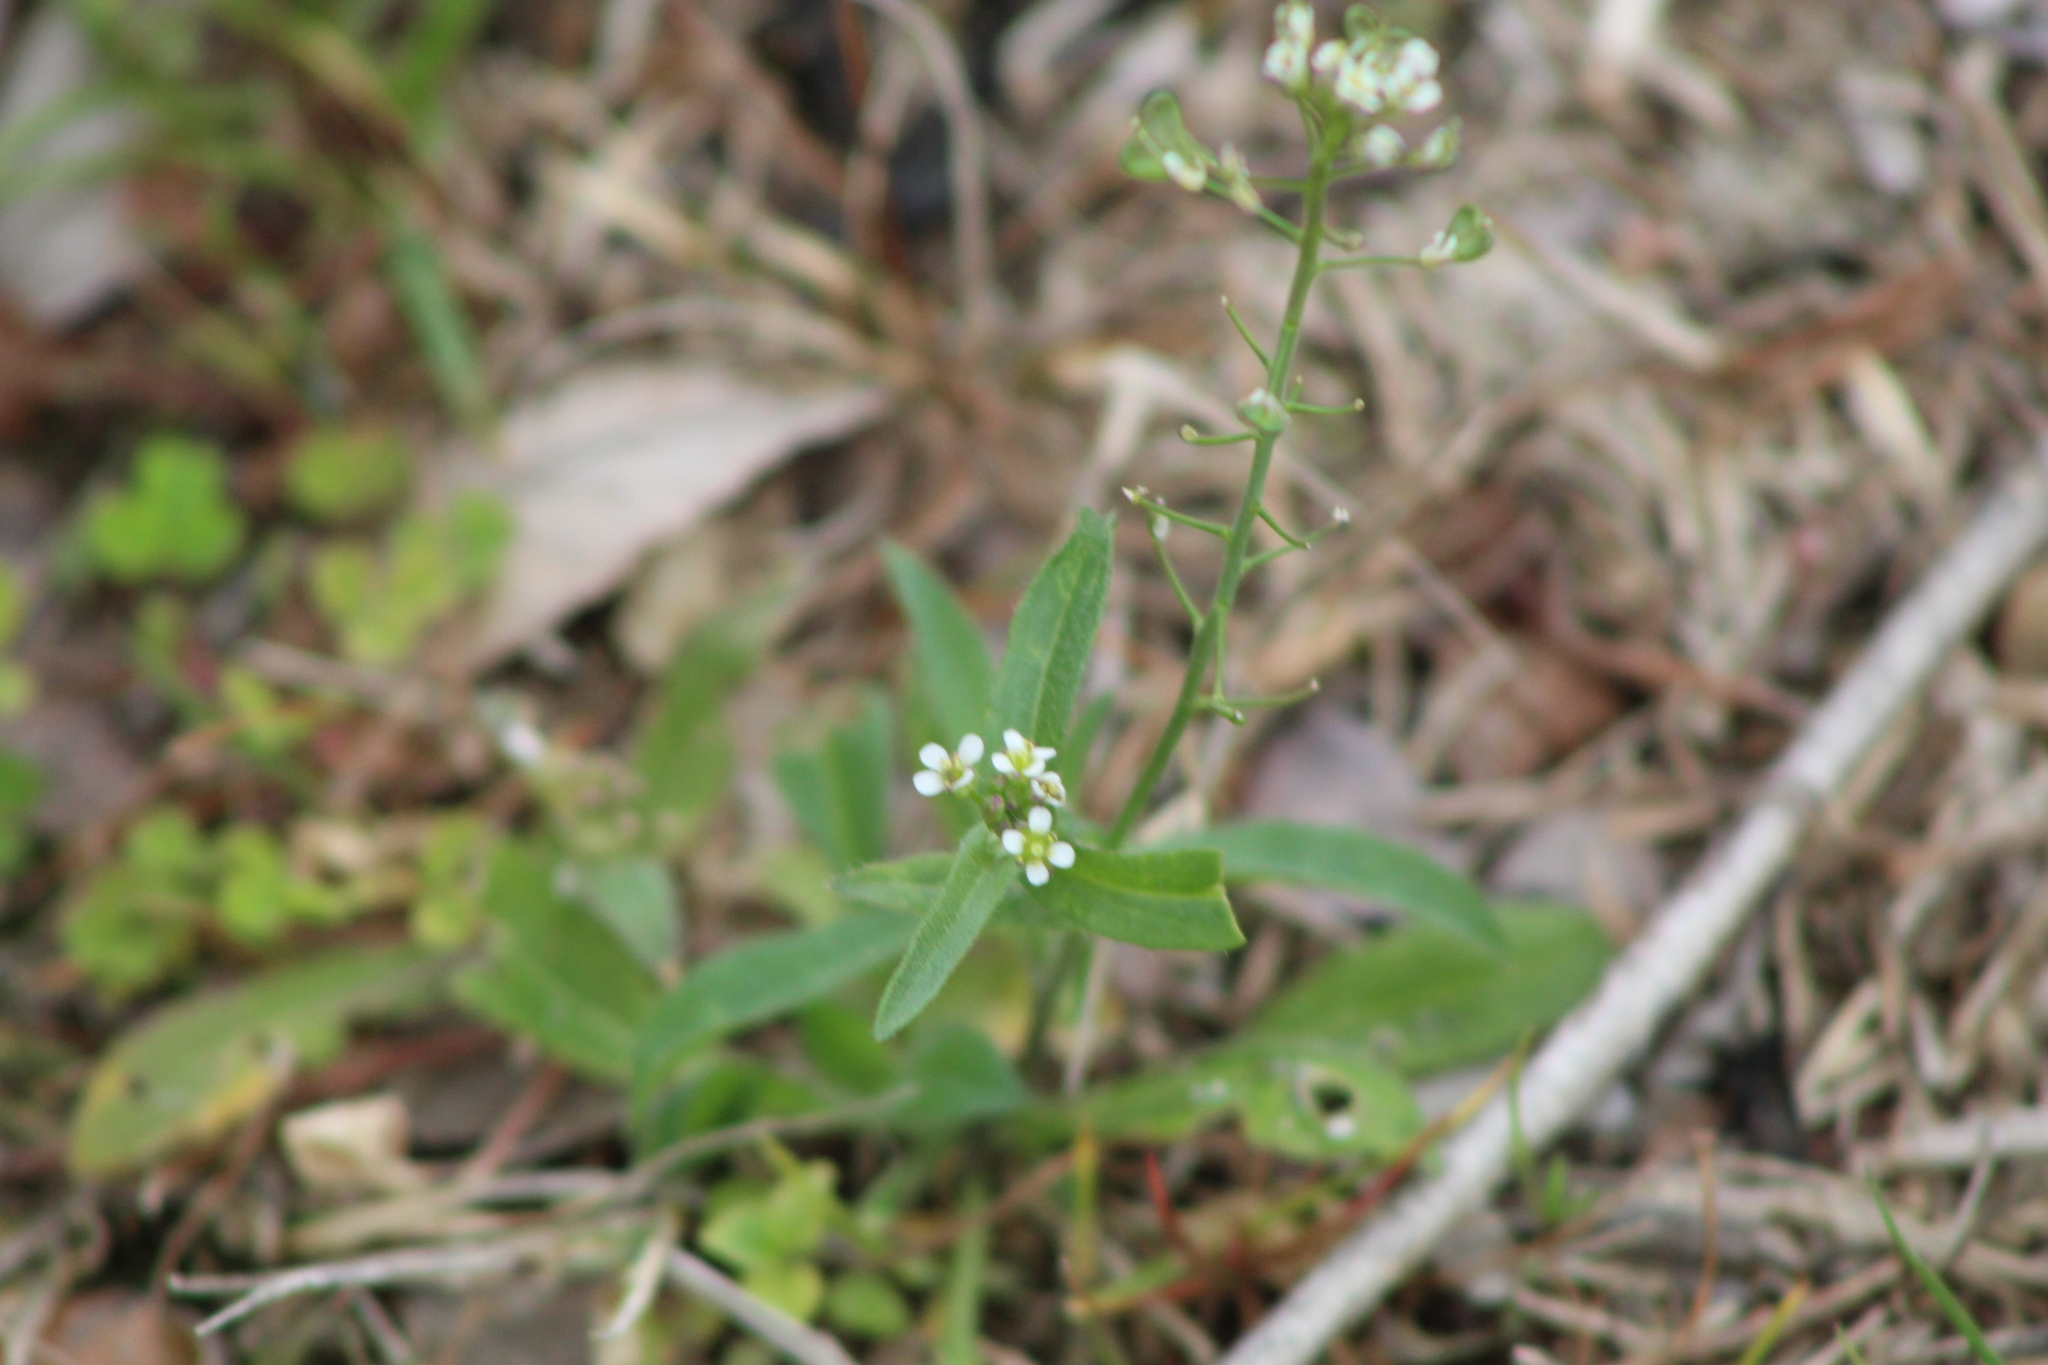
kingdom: Plantae
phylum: Tracheophyta
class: Magnoliopsida
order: Brassicales
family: Brassicaceae
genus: Capsella
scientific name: Capsella bursa-pastoris
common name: Shepherd's purse
